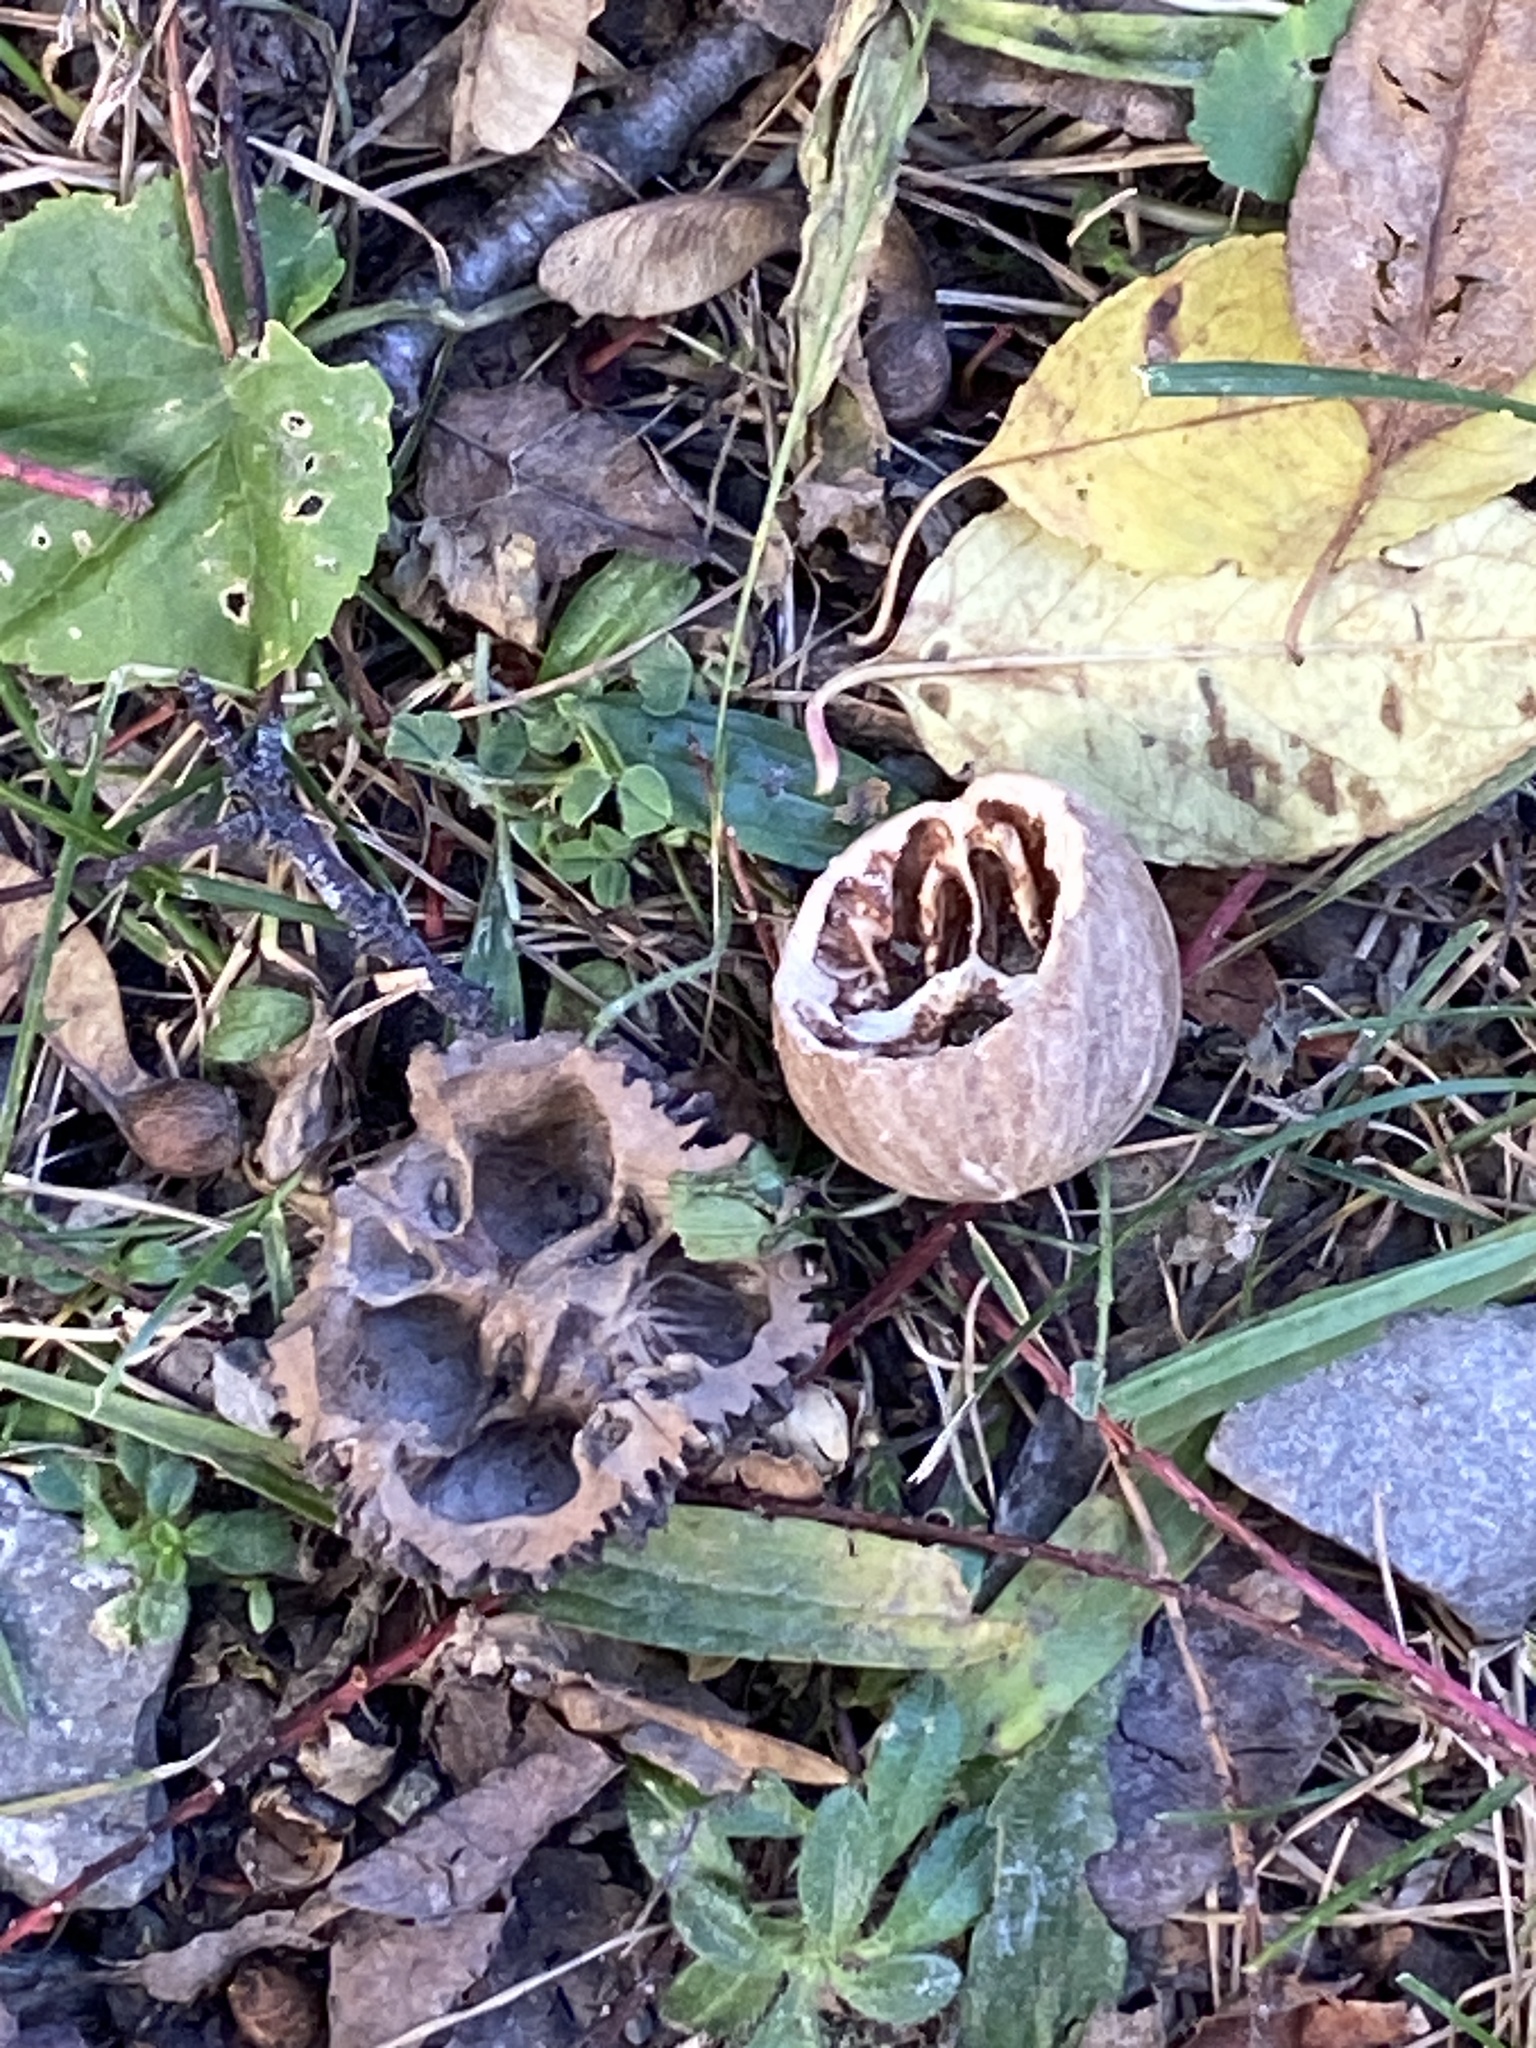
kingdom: Plantae
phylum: Tracheophyta
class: Magnoliopsida
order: Fagales
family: Juglandaceae
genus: Juglans
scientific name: Juglans nigra
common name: Black walnut
